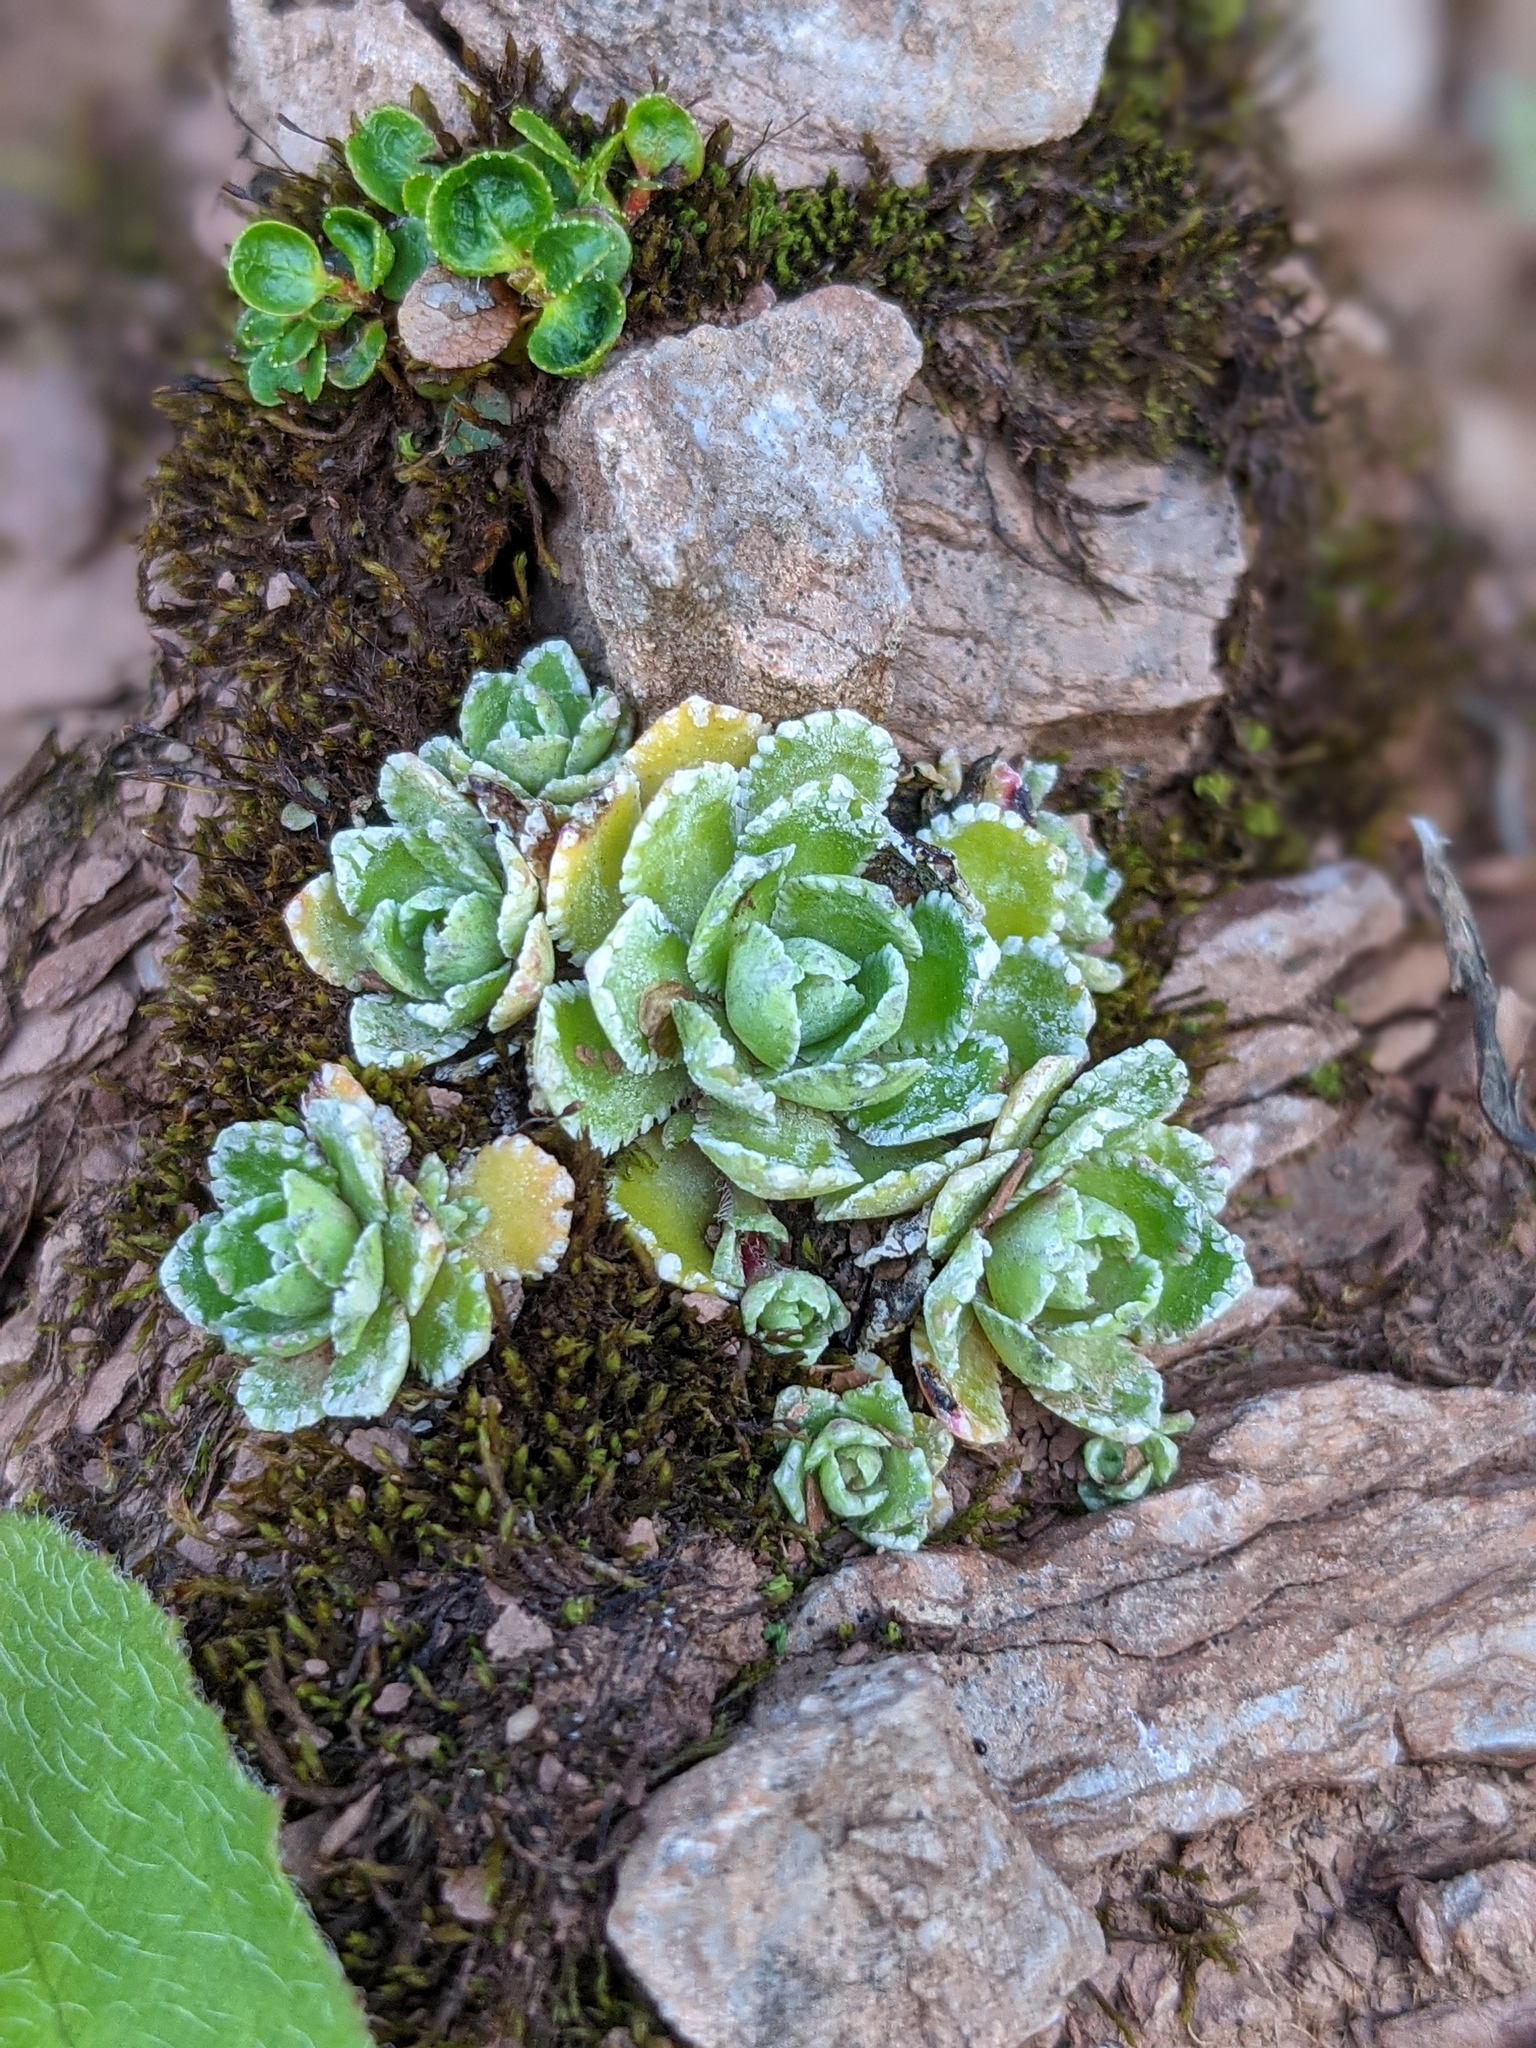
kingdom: Plantae
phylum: Tracheophyta
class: Magnoliopsida
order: Saxifragales
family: Saxifragaceae
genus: Saxifraga
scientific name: Saxifraga paniculata
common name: Livelong saxifrage
